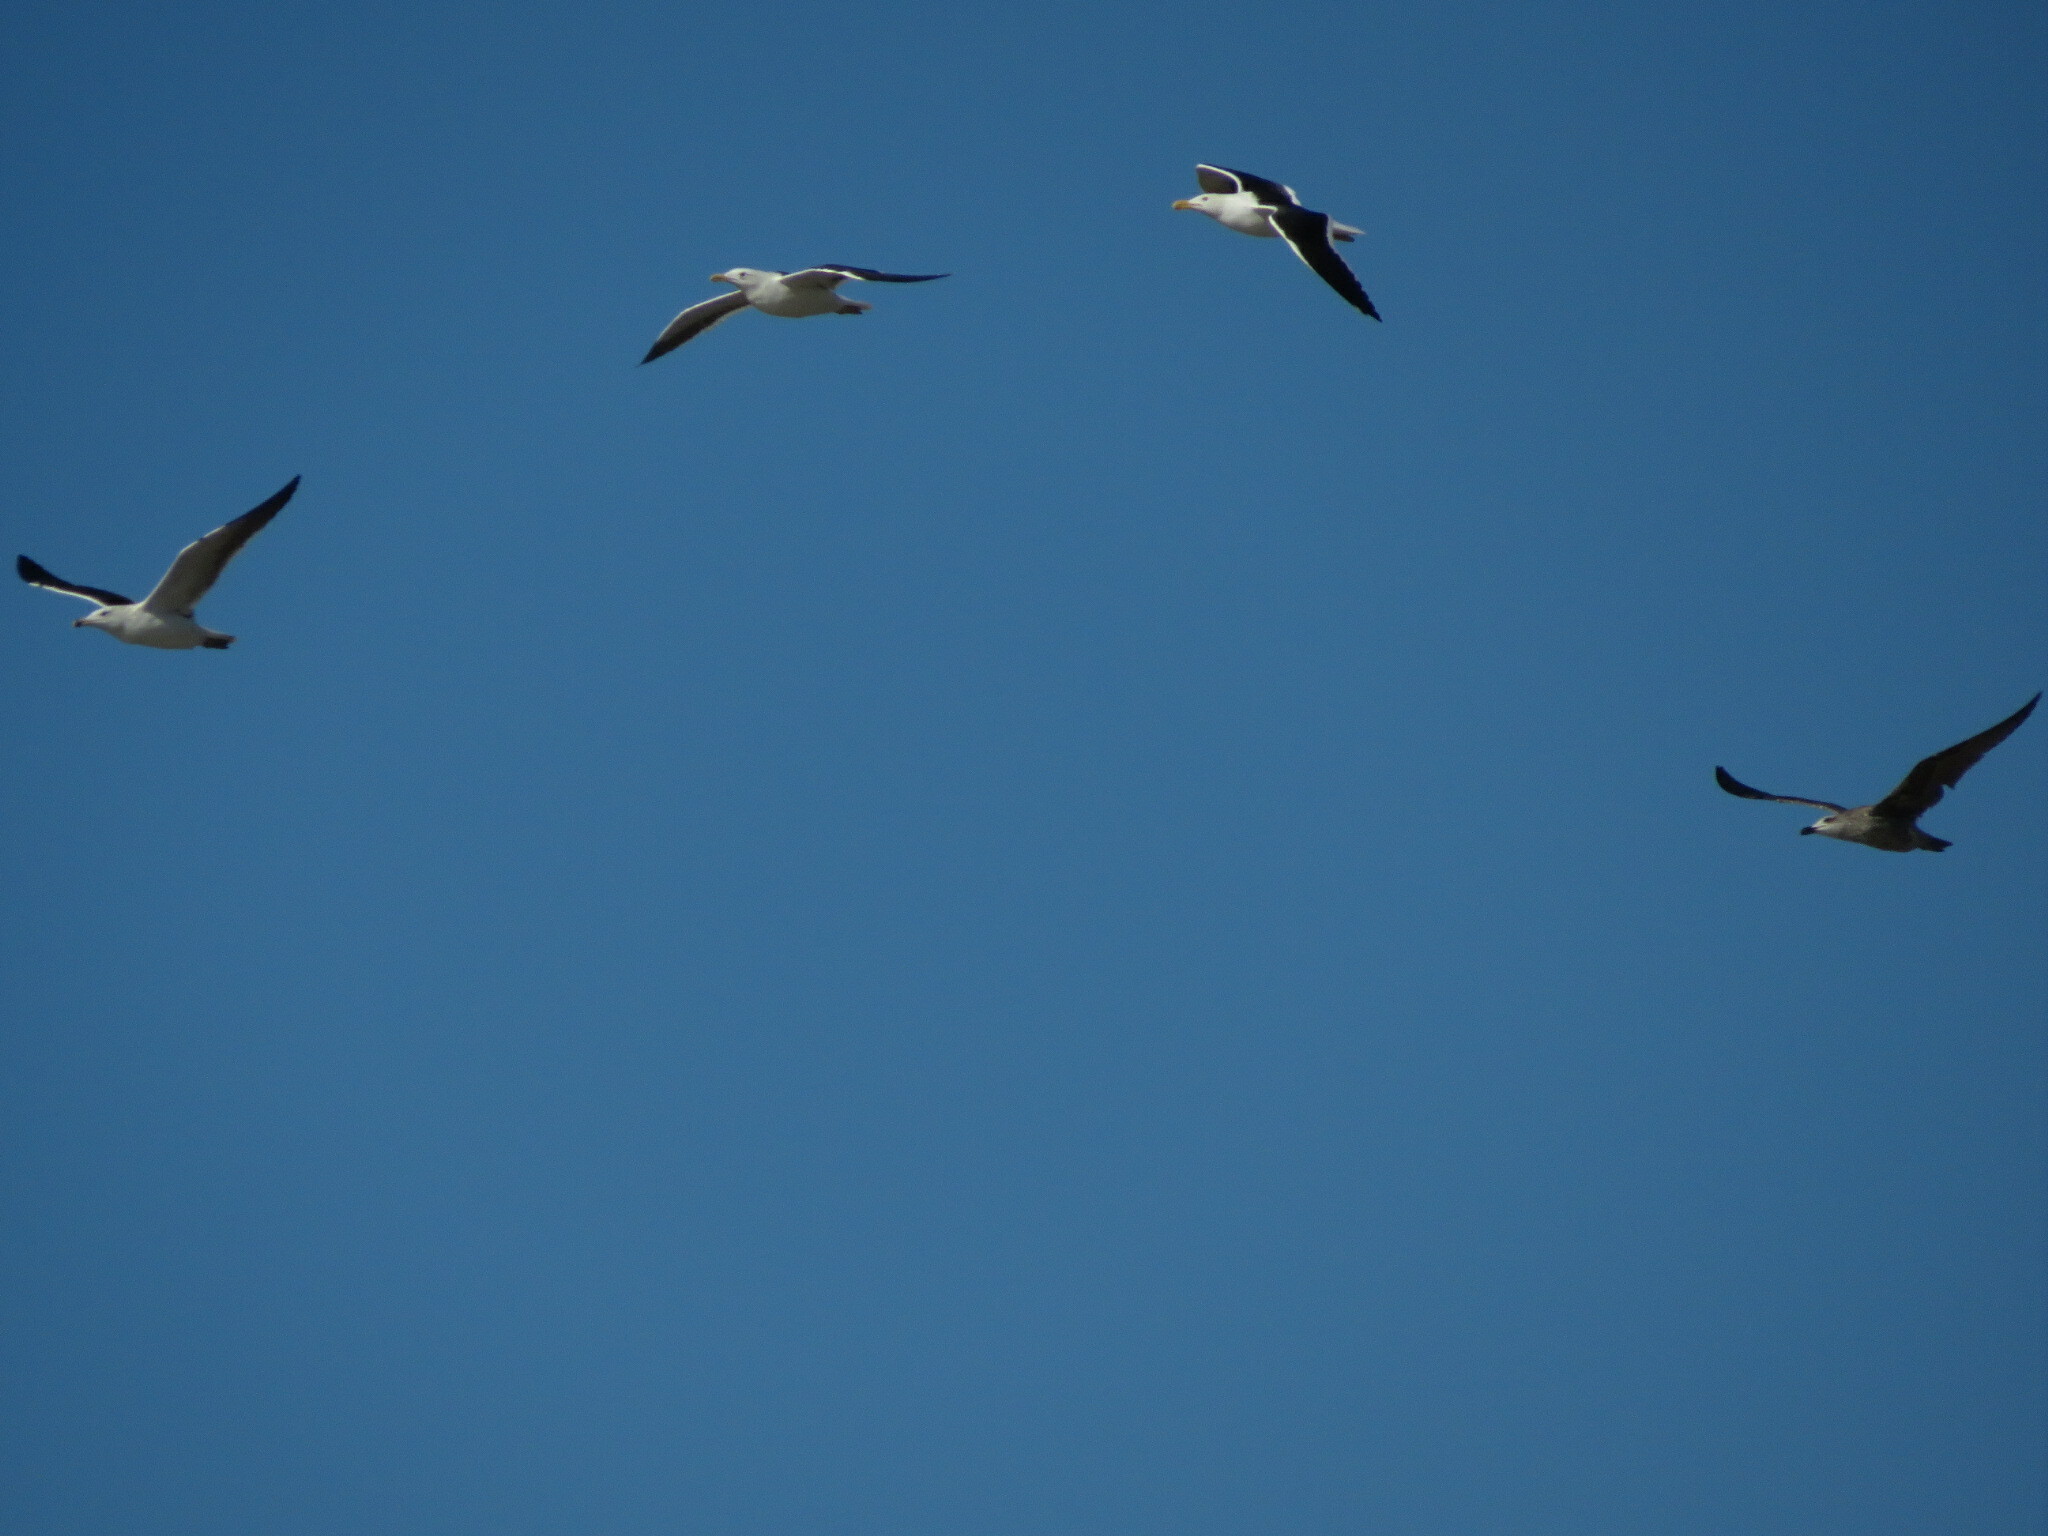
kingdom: Animalia
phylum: Chordata
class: Aves
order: Charadriiformes
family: Laridae
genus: Larus
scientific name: Larus dominicanus
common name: Kelp gull
